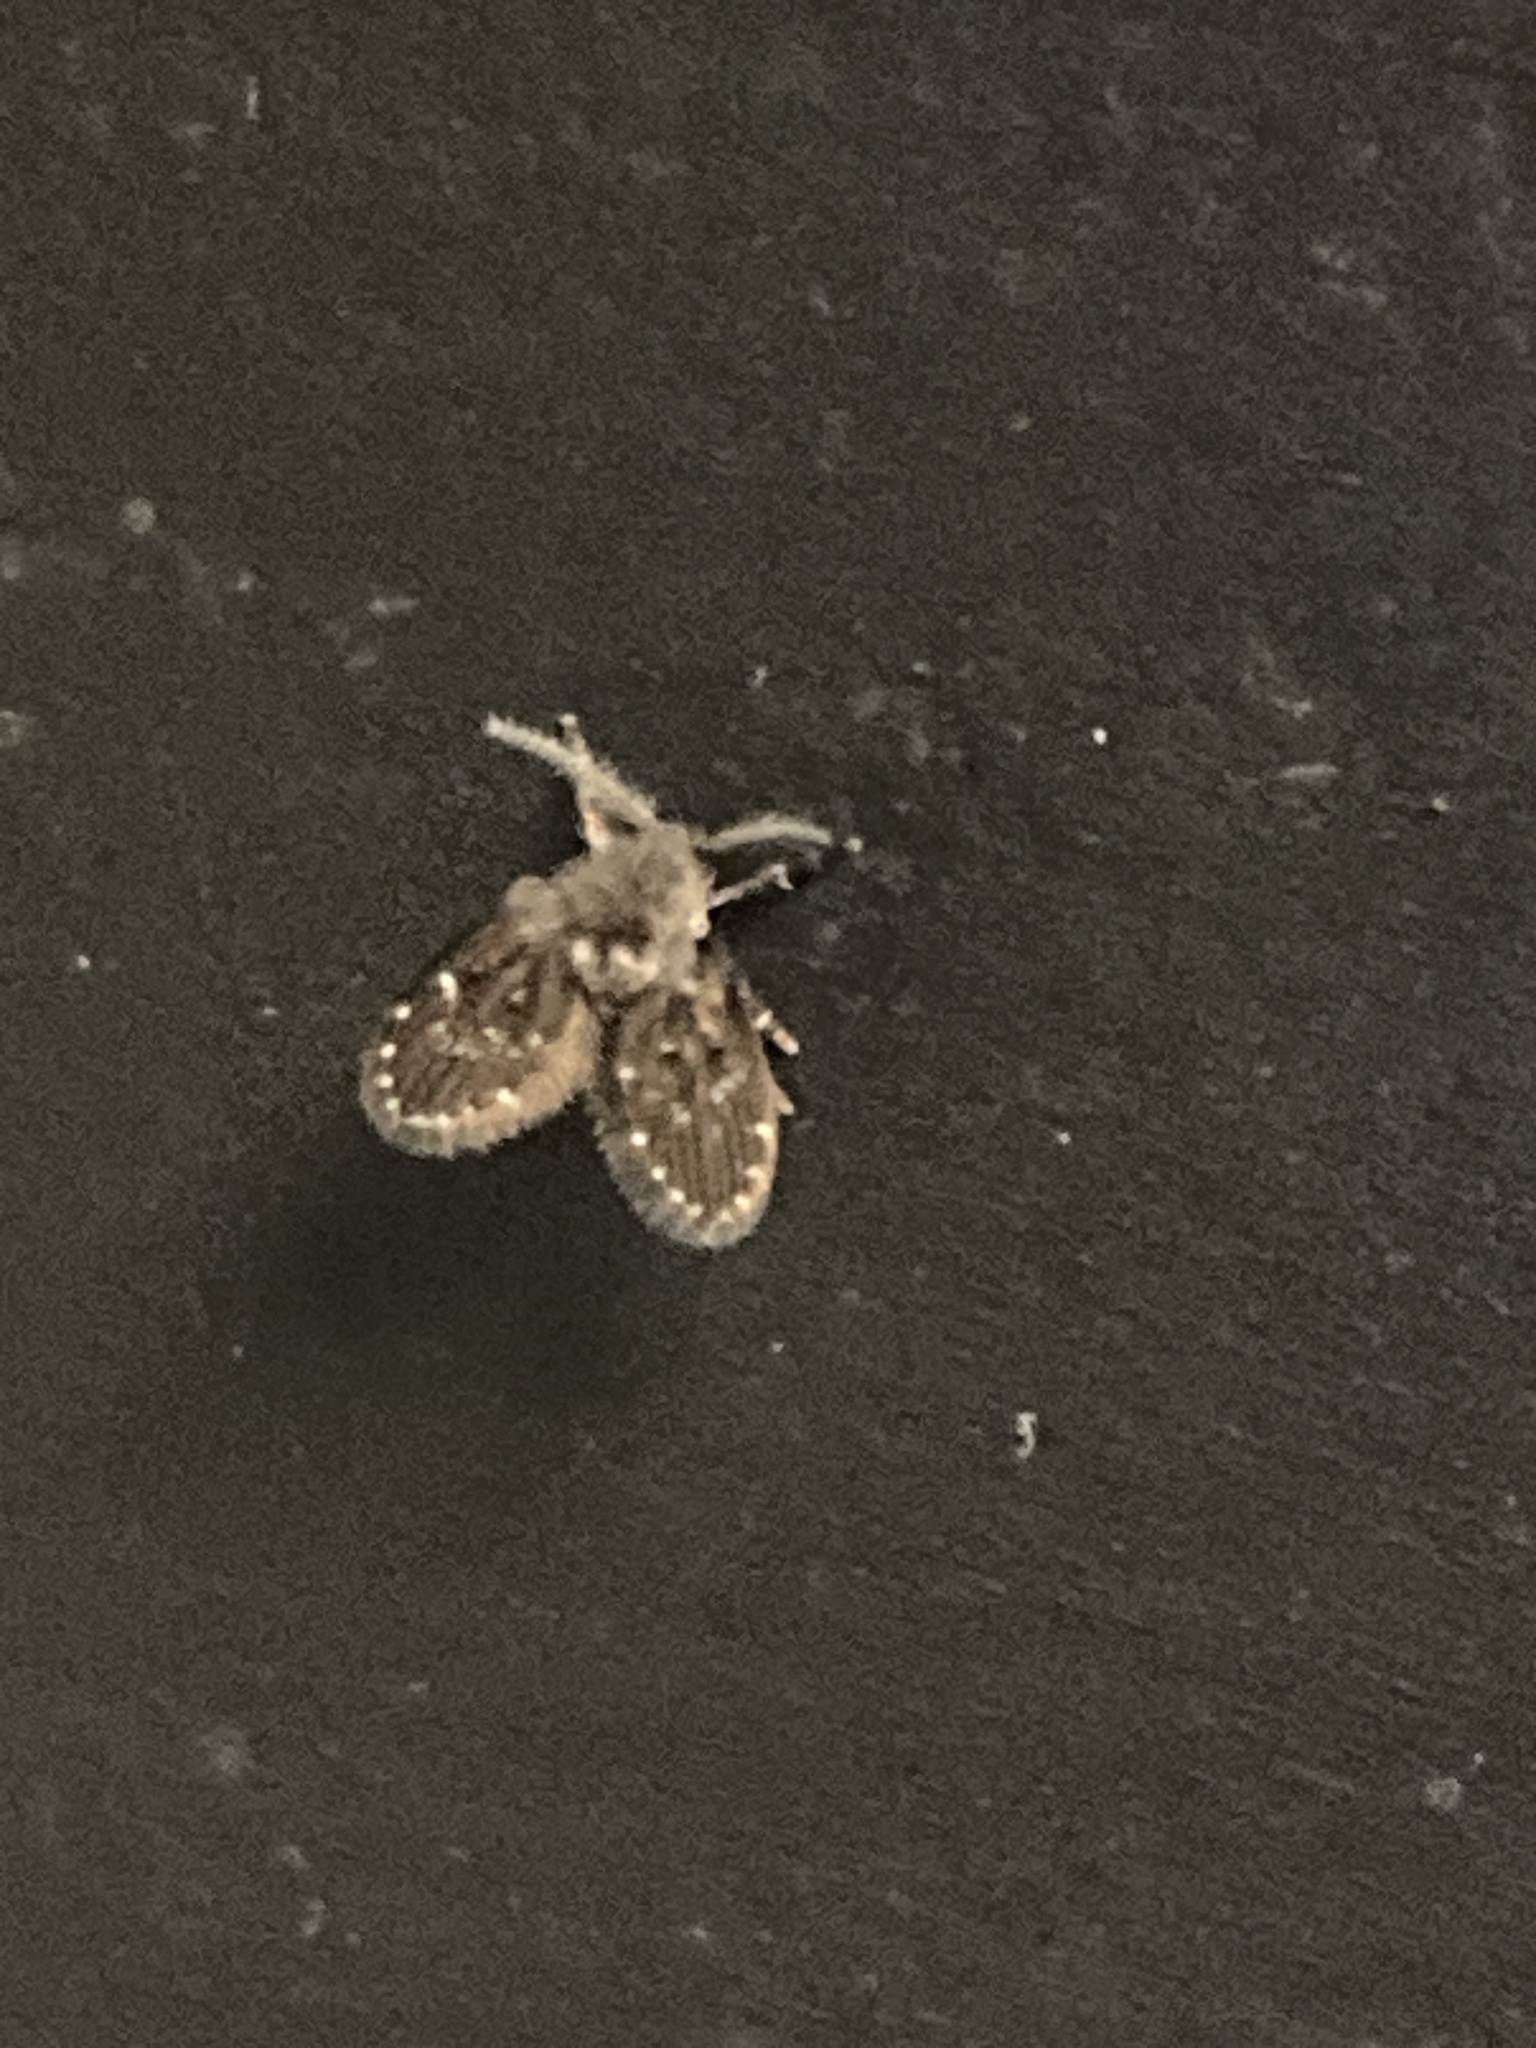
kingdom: Animalia
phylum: Arthropoda
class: Insecta
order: Diptera
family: Psychodidae
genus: Clogmia
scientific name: Clogmia albipunctatus
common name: White-spotted moth fly
